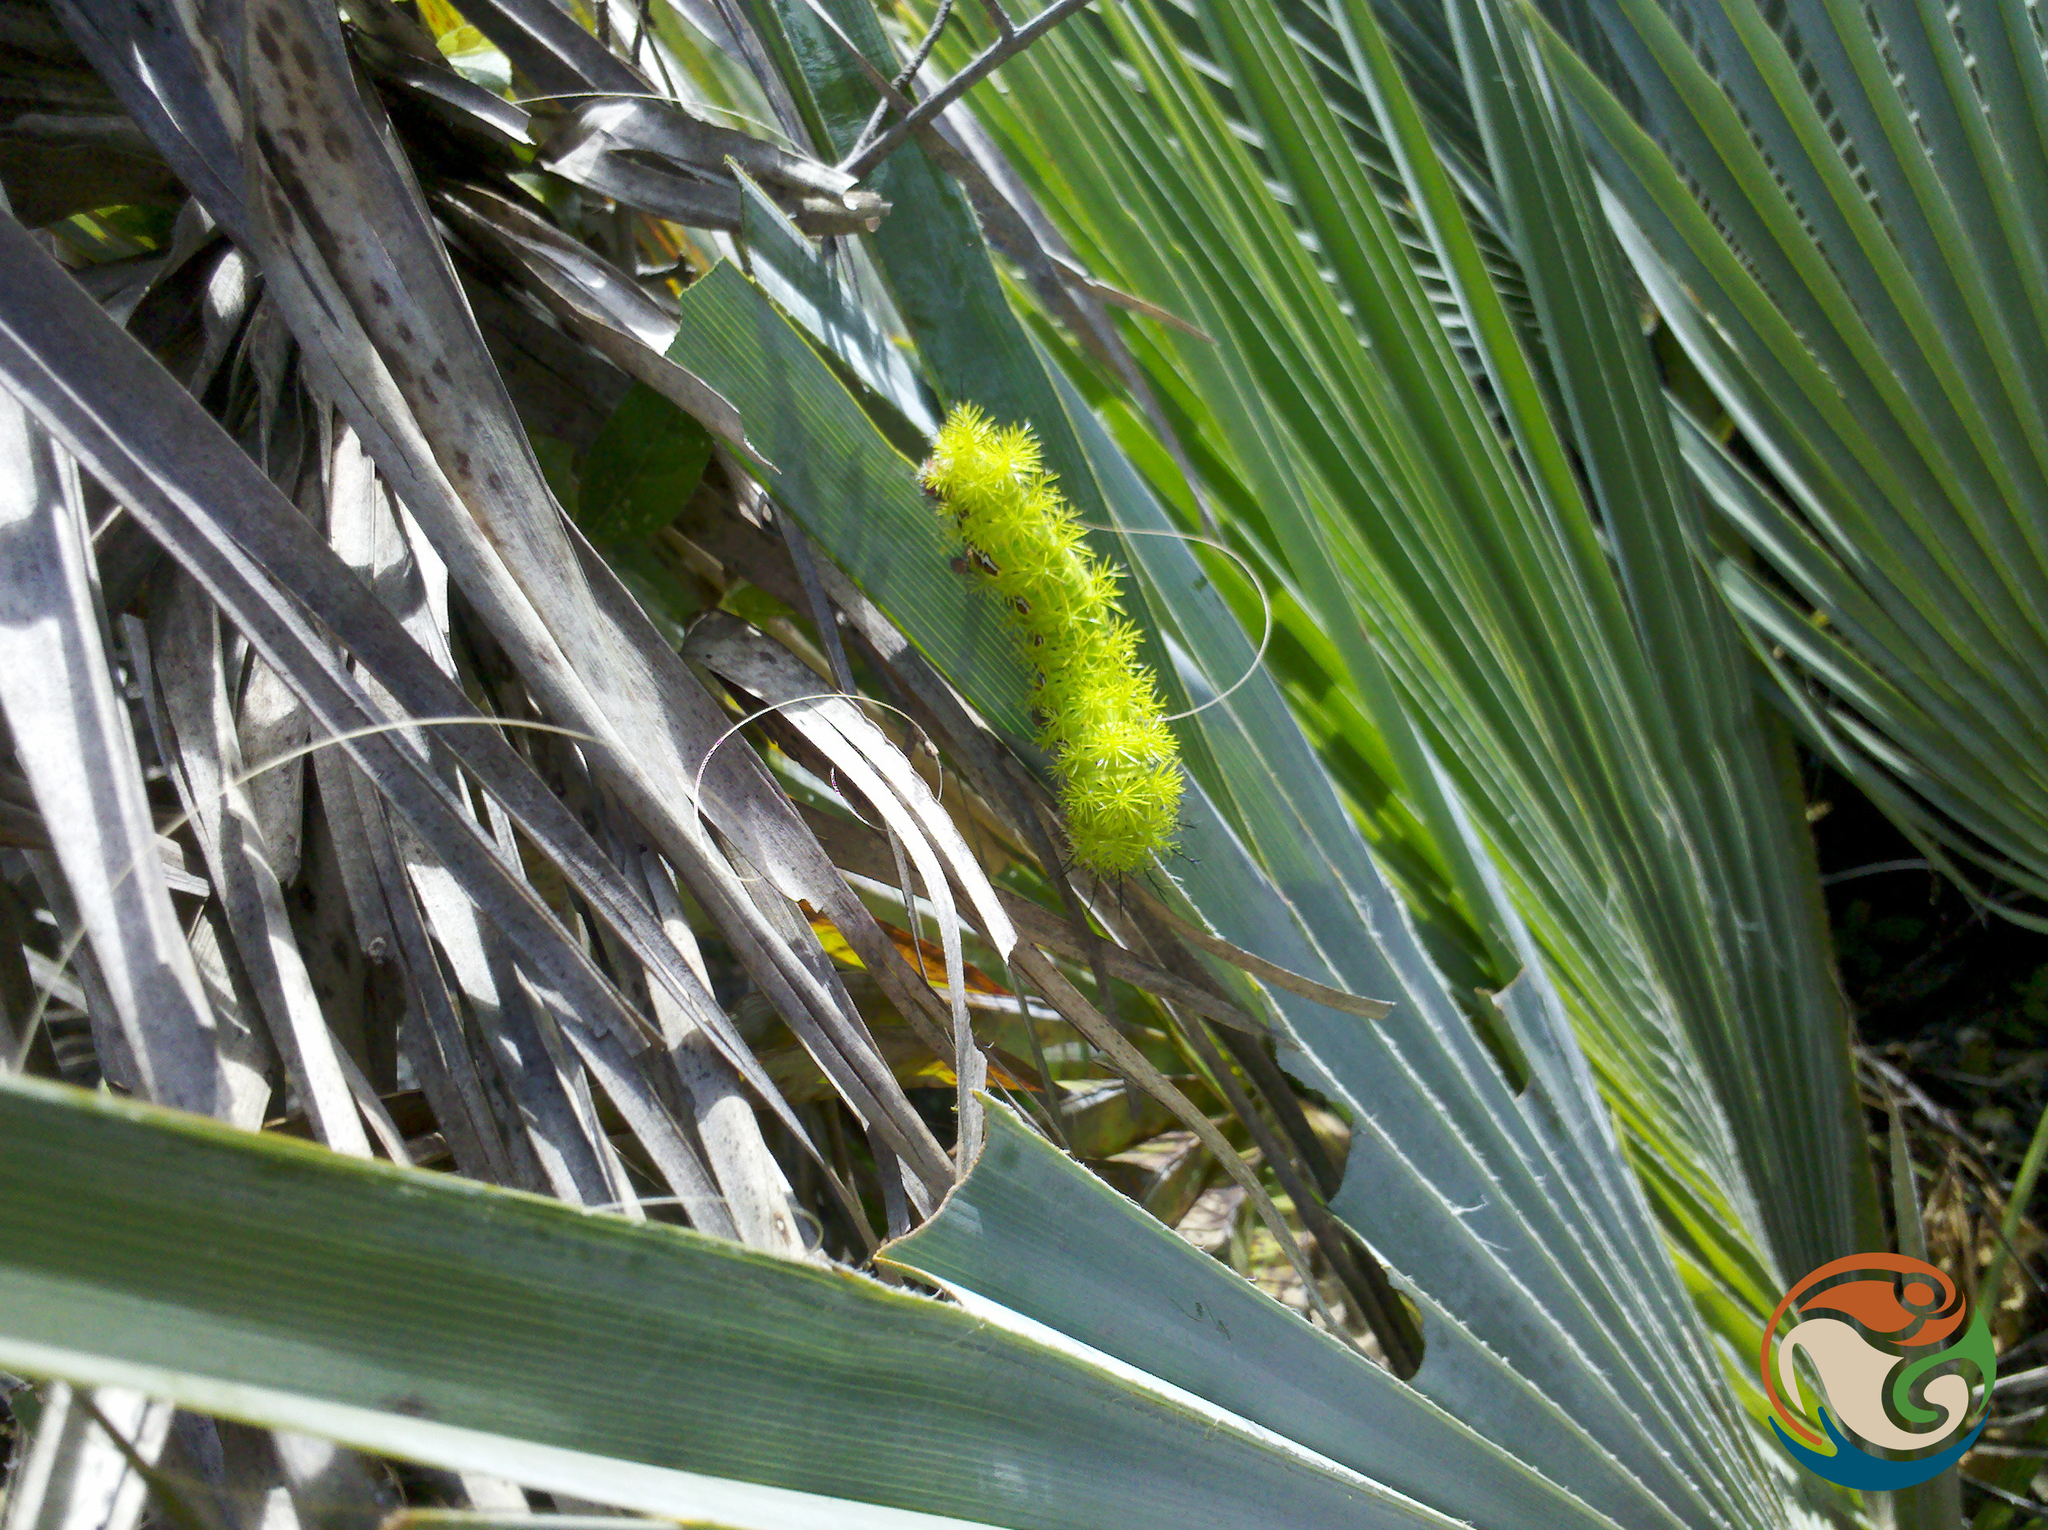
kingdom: Animalia
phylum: Arthropoda
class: Insecta
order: Lepidoptera
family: Saturniidae
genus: Automeris
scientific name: Automeris io
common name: Io moth
